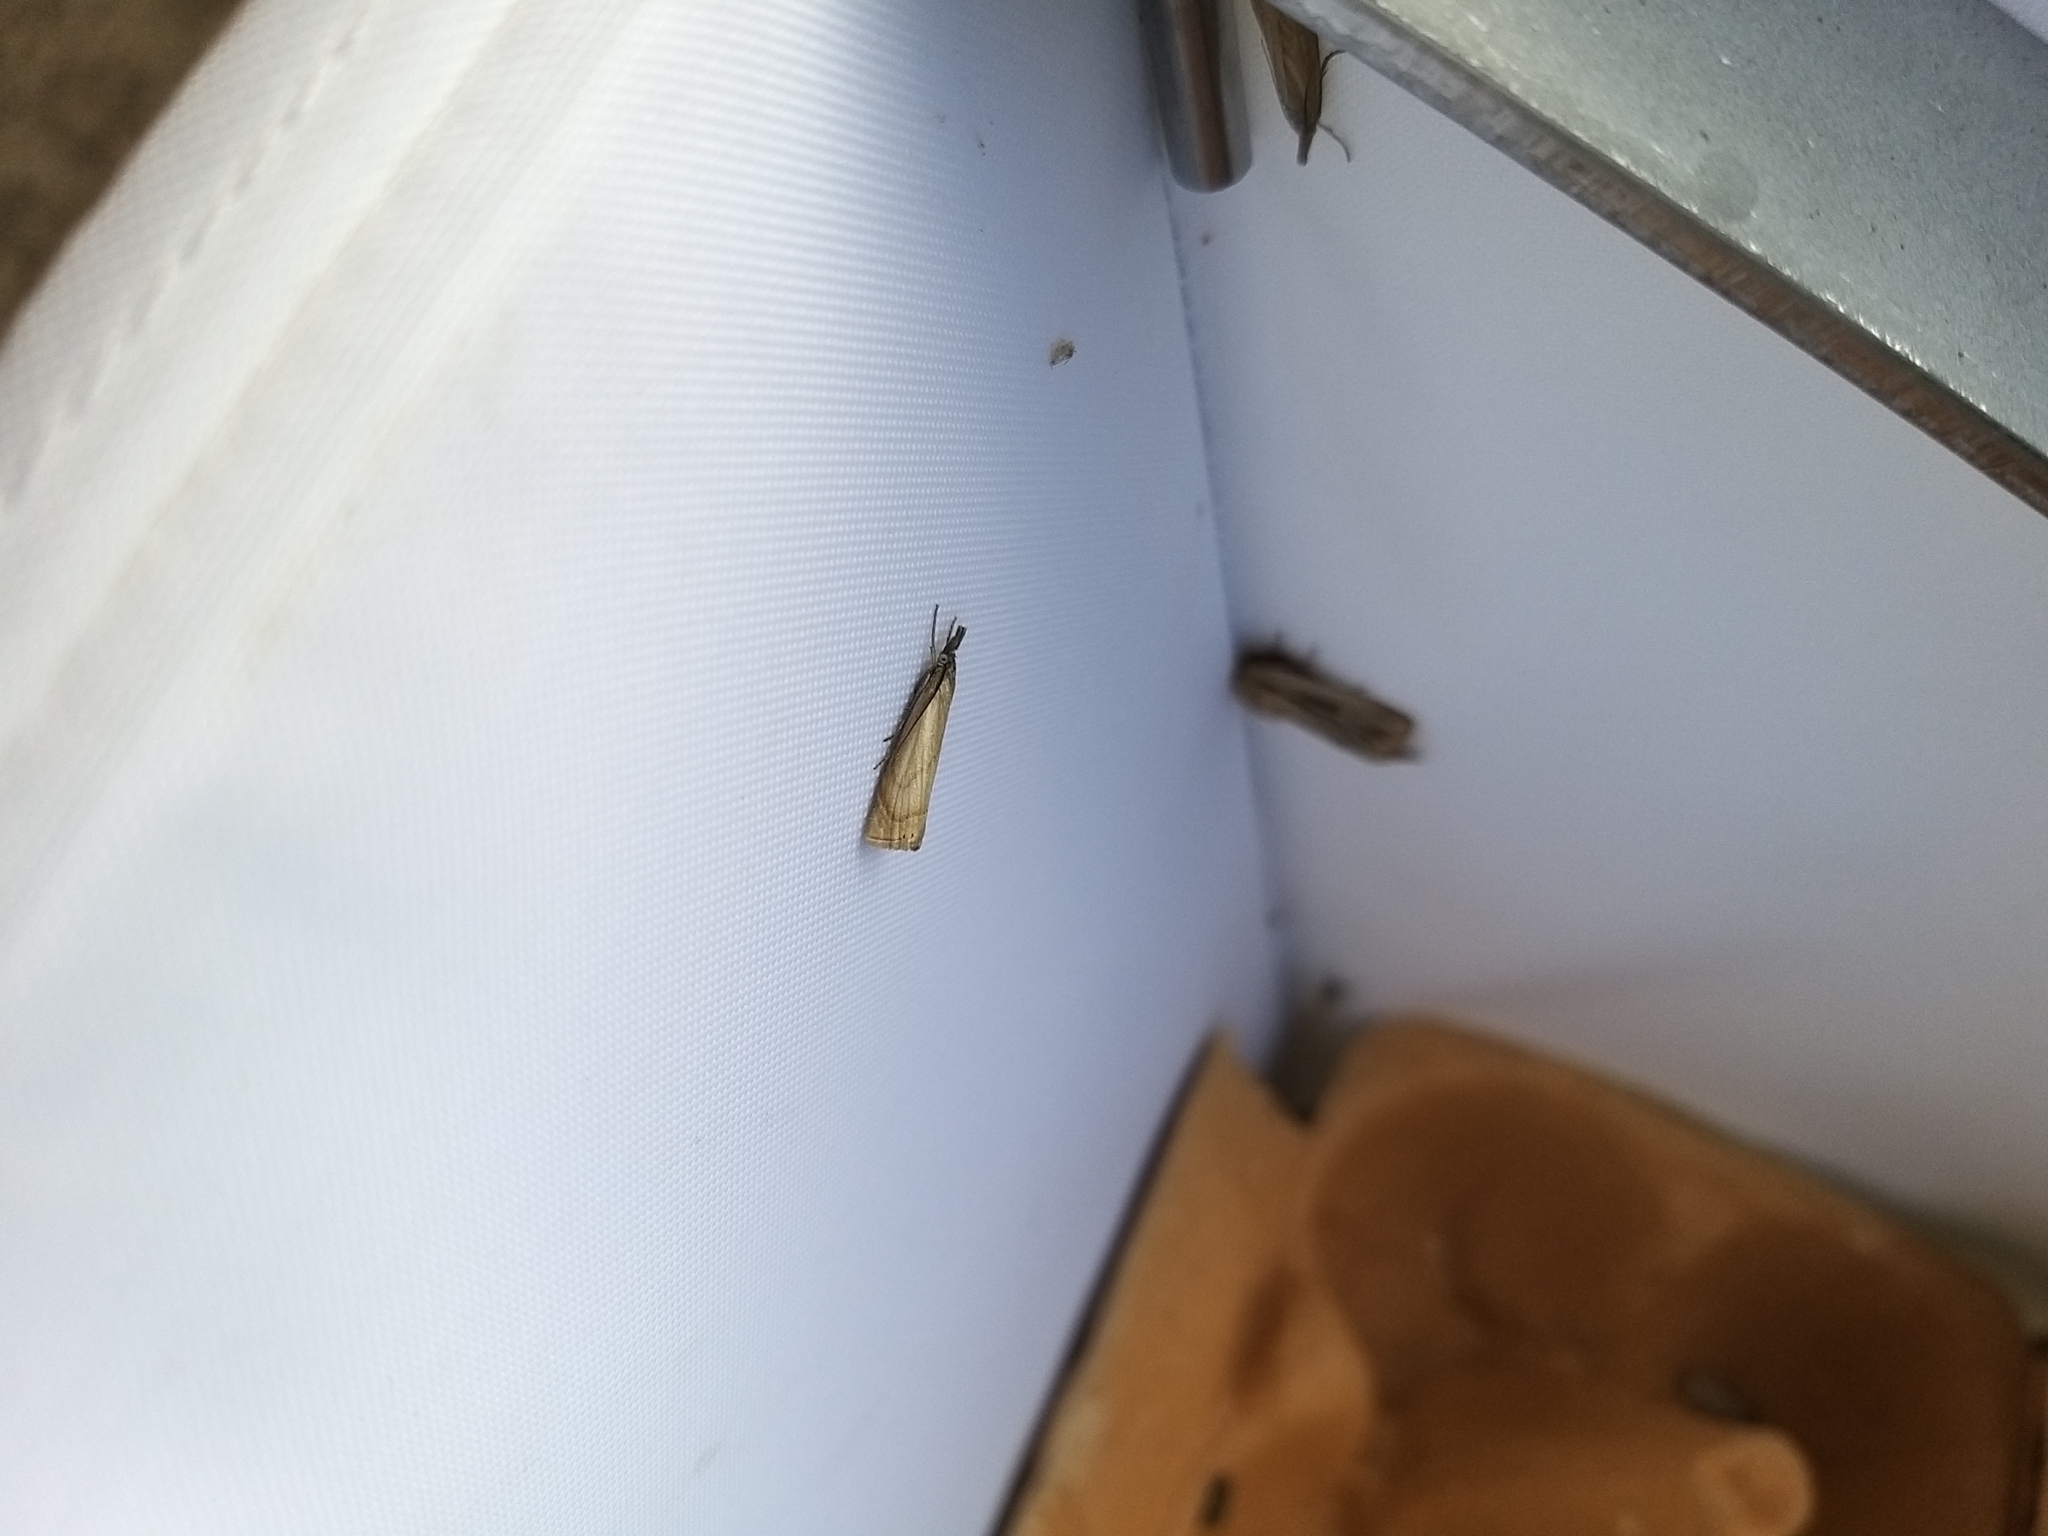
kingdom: Animalia
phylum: Arthropoda
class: Insecta
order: Lepidoptera
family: Crambidae
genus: Chrysoteuchia
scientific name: Chrysoteuchia culmella
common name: Garden grass-veneer
